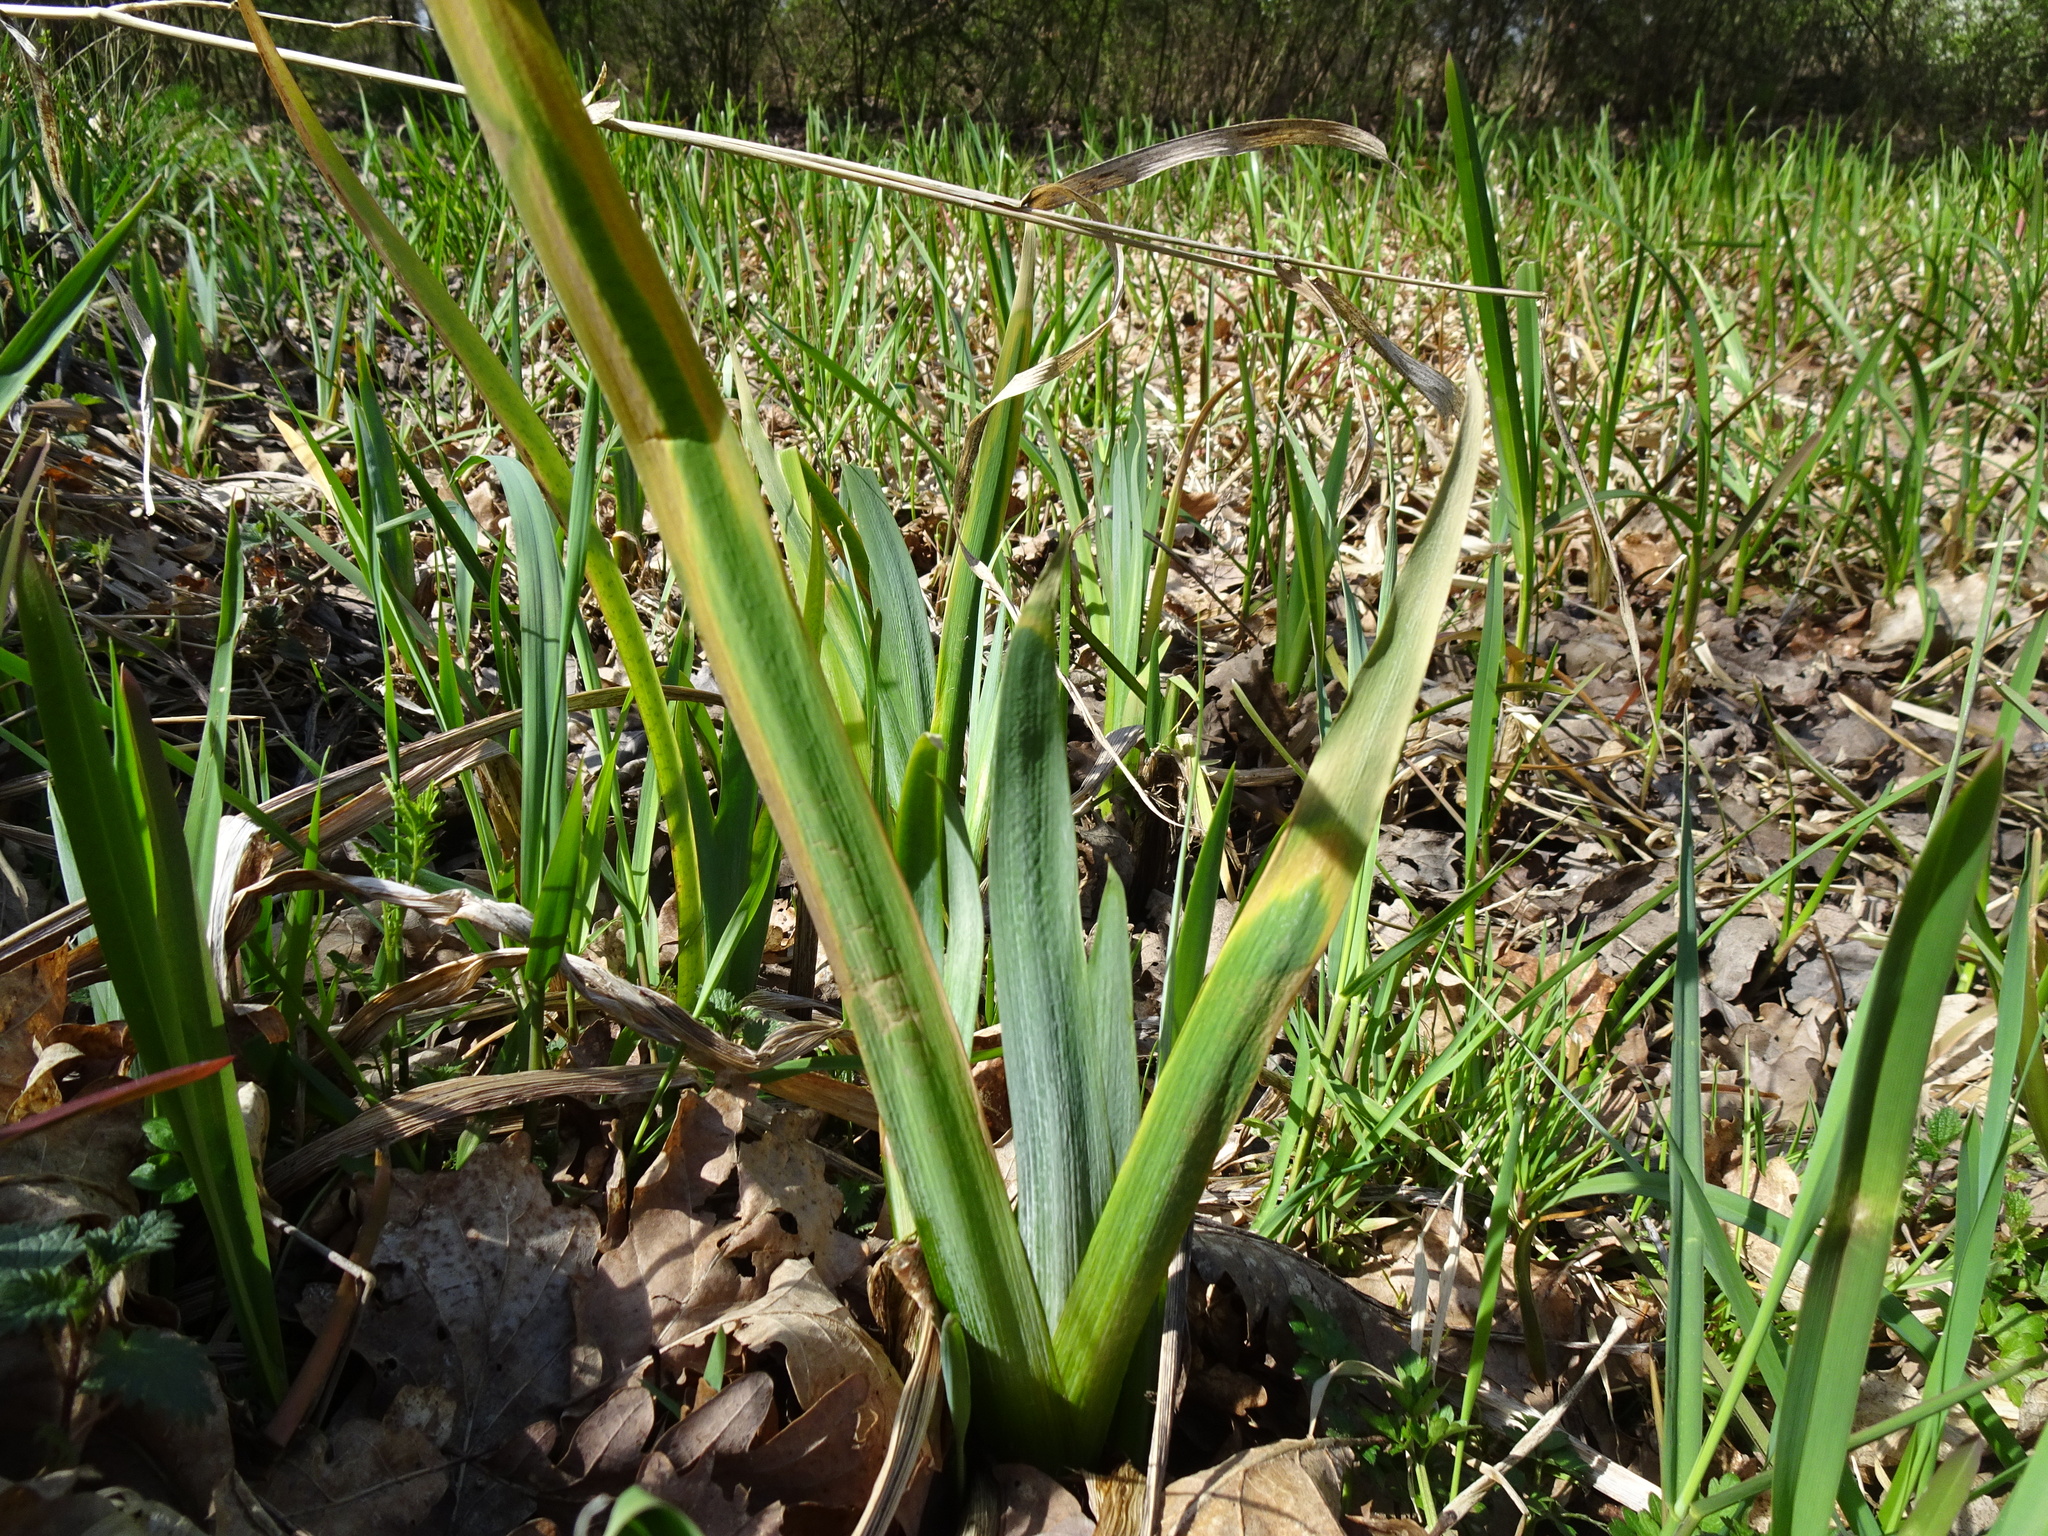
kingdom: Plantae
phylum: Tracheophyta
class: Liliopsida
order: Asparagales
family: Iridaceae
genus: Iris
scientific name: Iris pseudacorus
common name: Yellow flag
